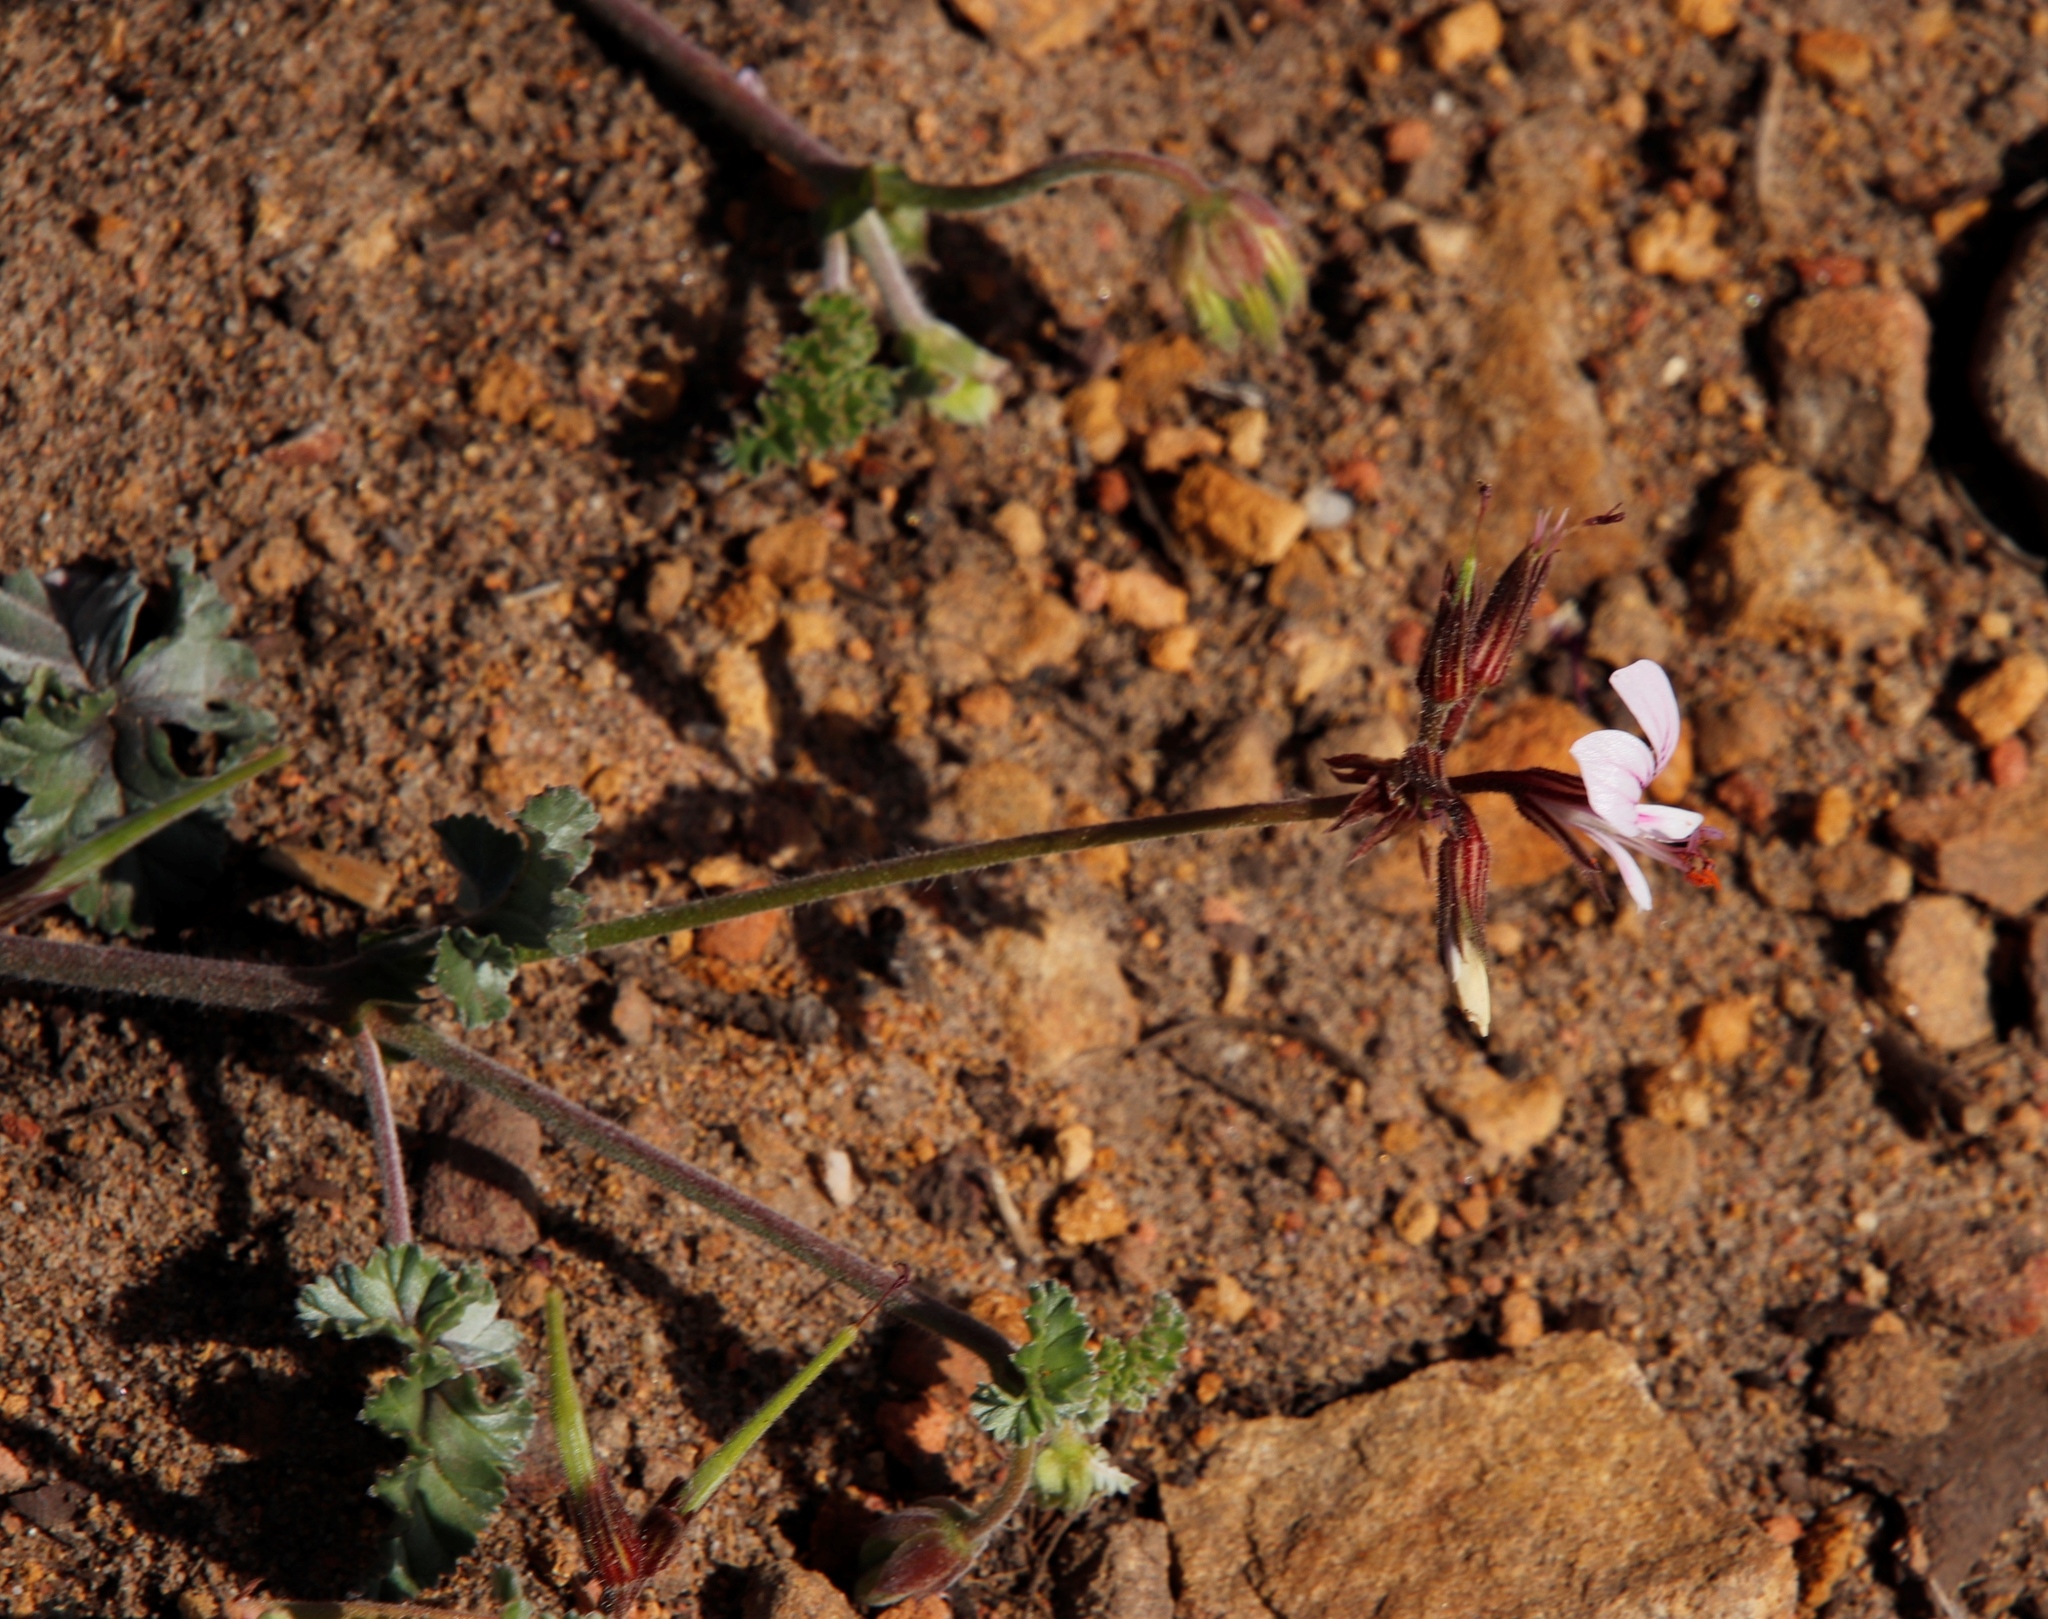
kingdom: Plantae
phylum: Tracheophyta
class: Magnoliopsida
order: Geraniales
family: Geraniaceae
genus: Pelargonium
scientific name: Pelargonium candicans
